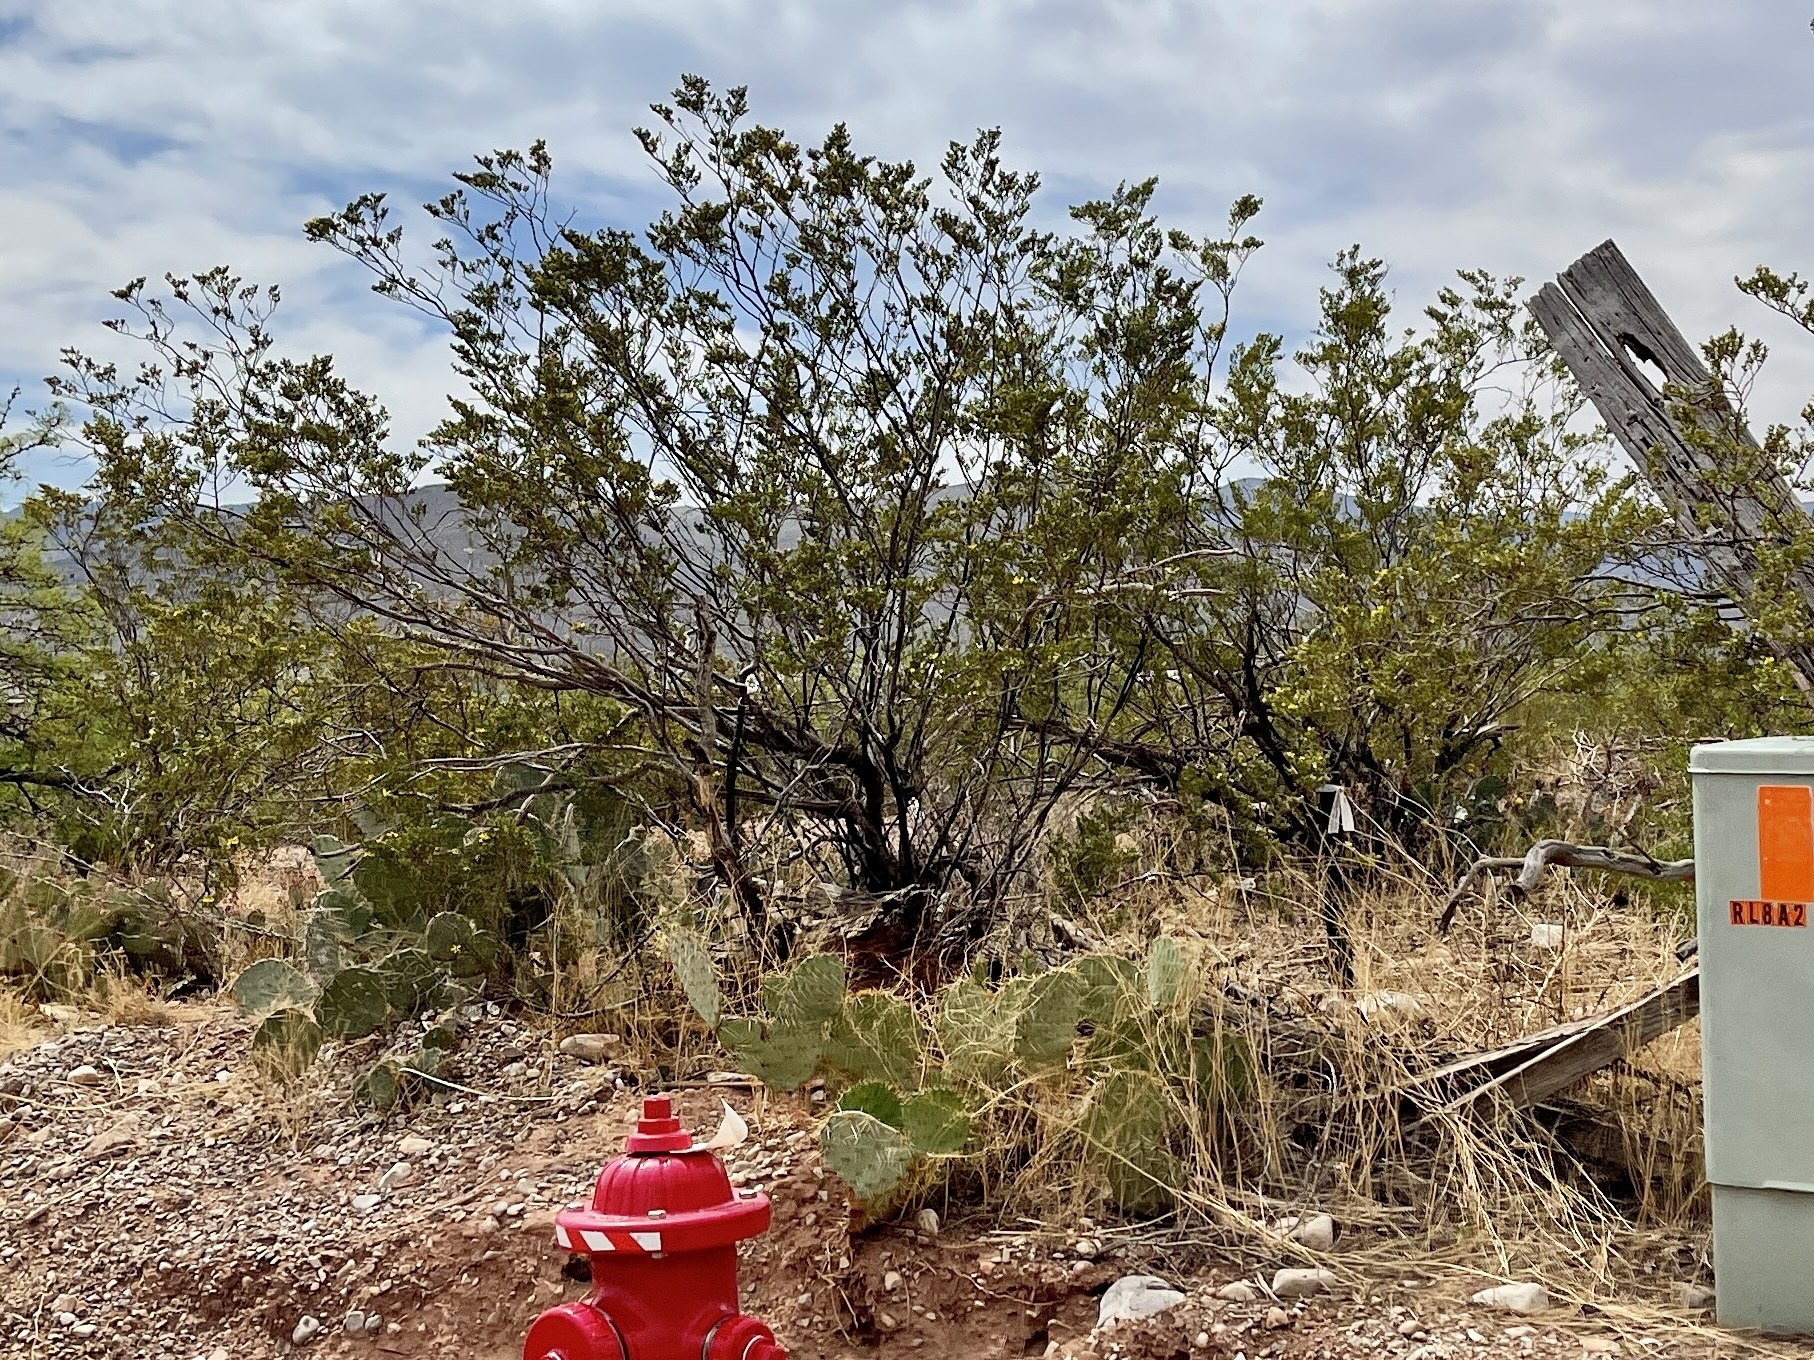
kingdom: Plantae
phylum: Tracheophyta
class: Magnoliopsida
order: Zygophyllales
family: Zygophyllaceae
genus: Larrea
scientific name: Larrea tridentata
